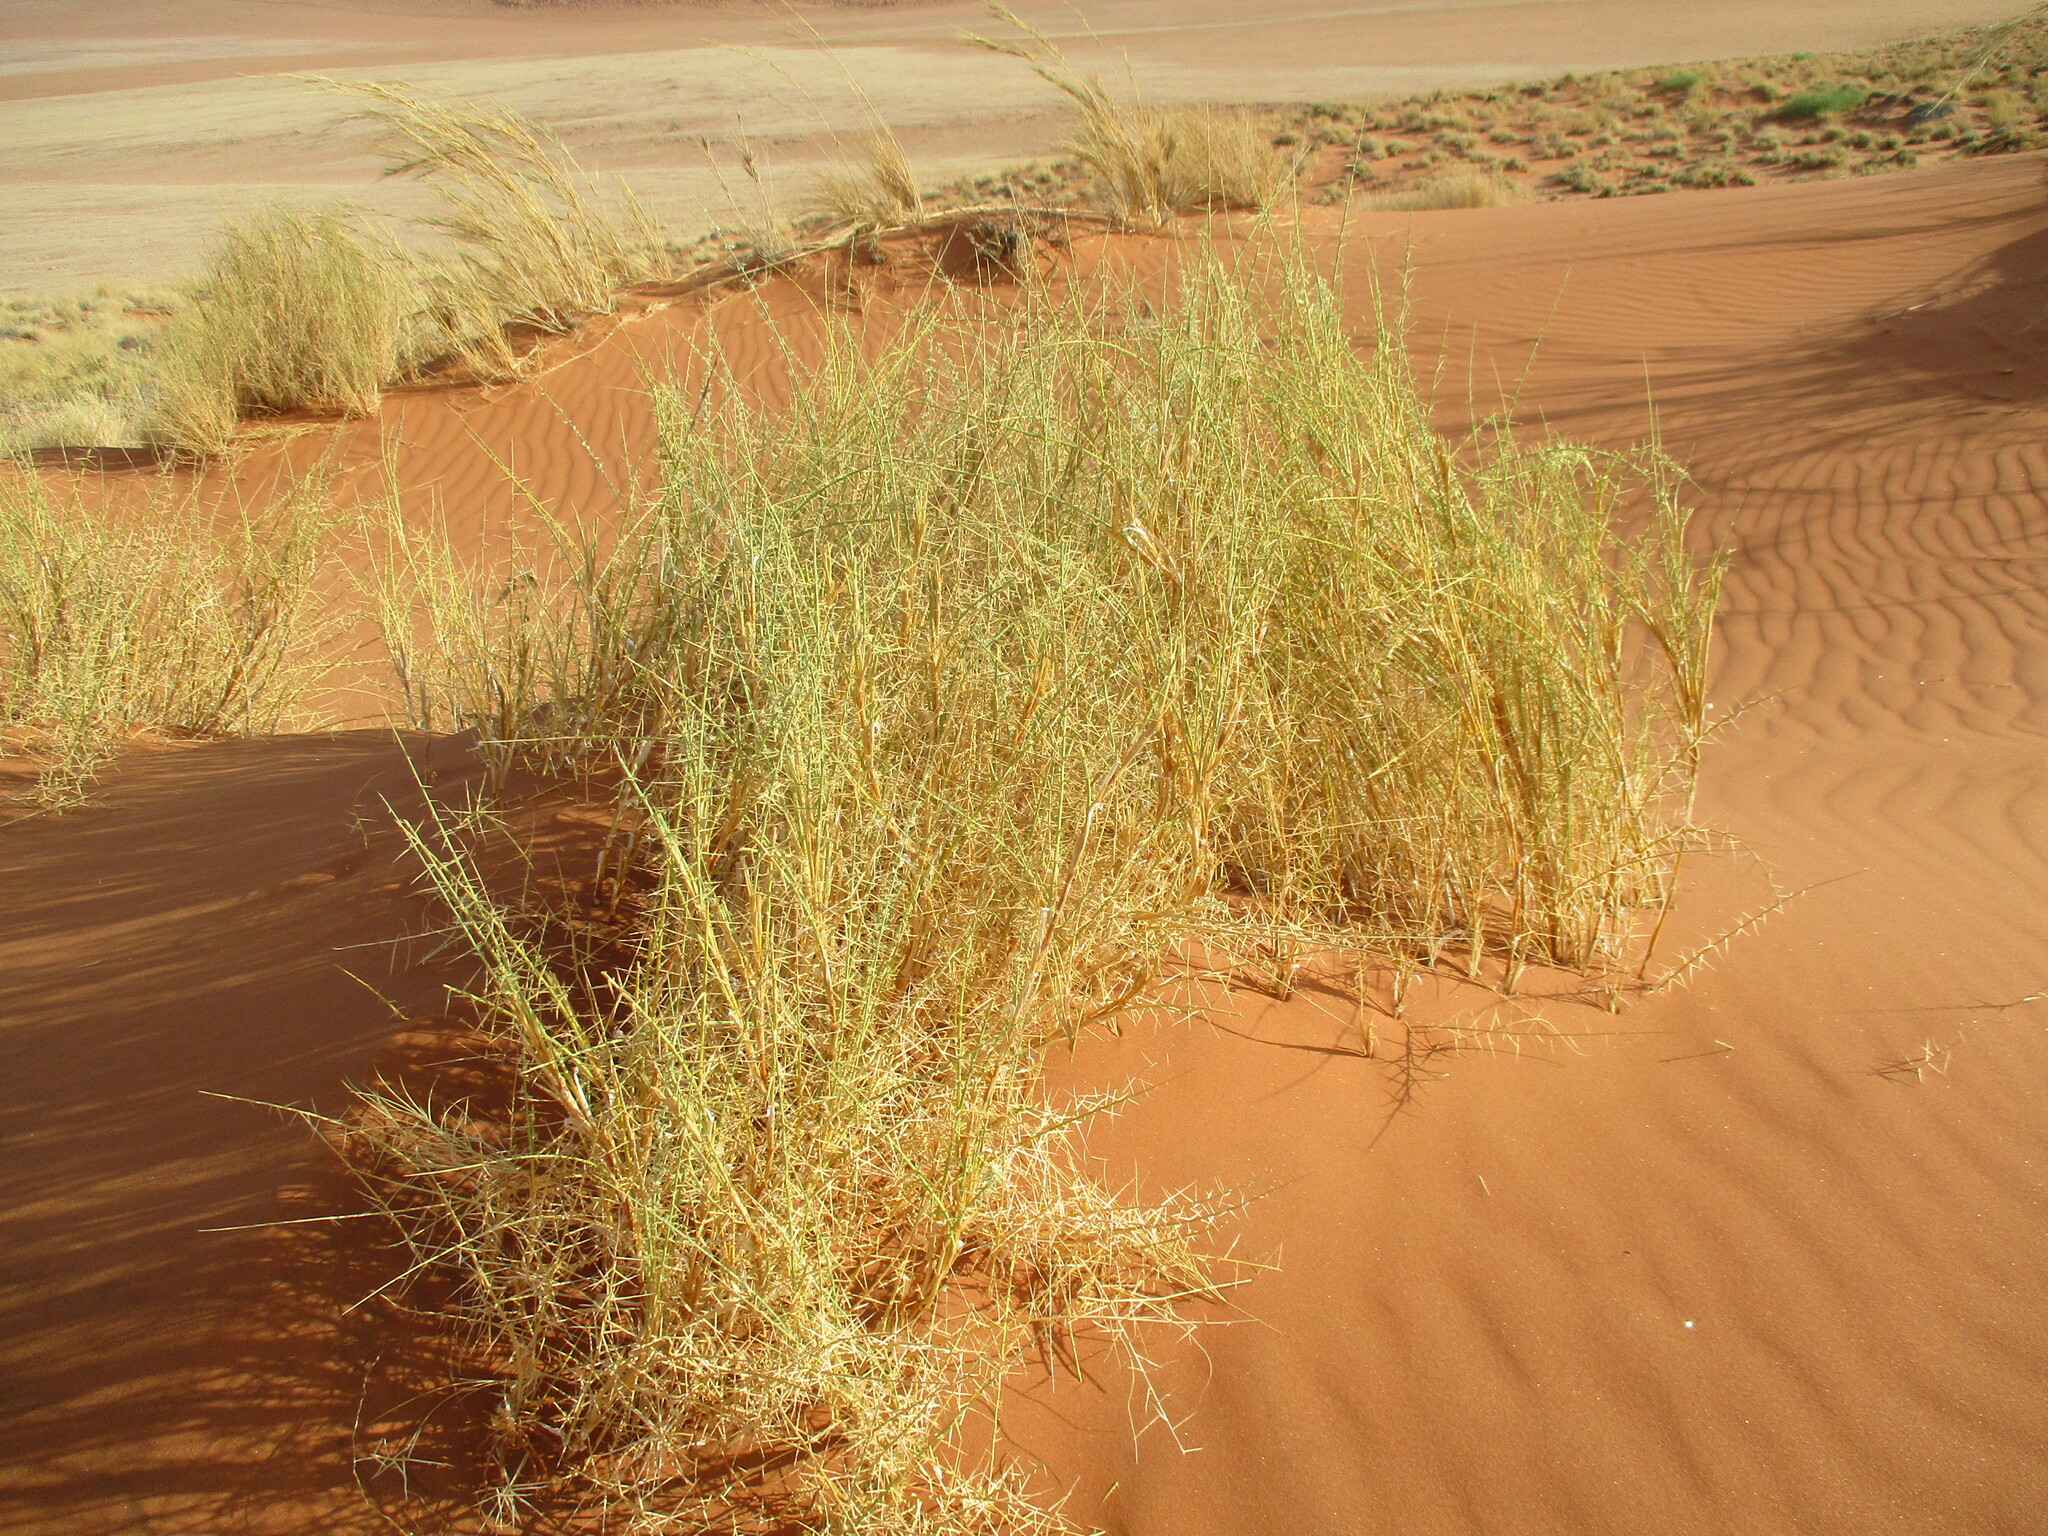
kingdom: Plantae
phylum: Tracheophyta
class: Liliopsida
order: Poales
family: Poaceae
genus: Cladoraphis
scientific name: Cladoraphis spinosa
